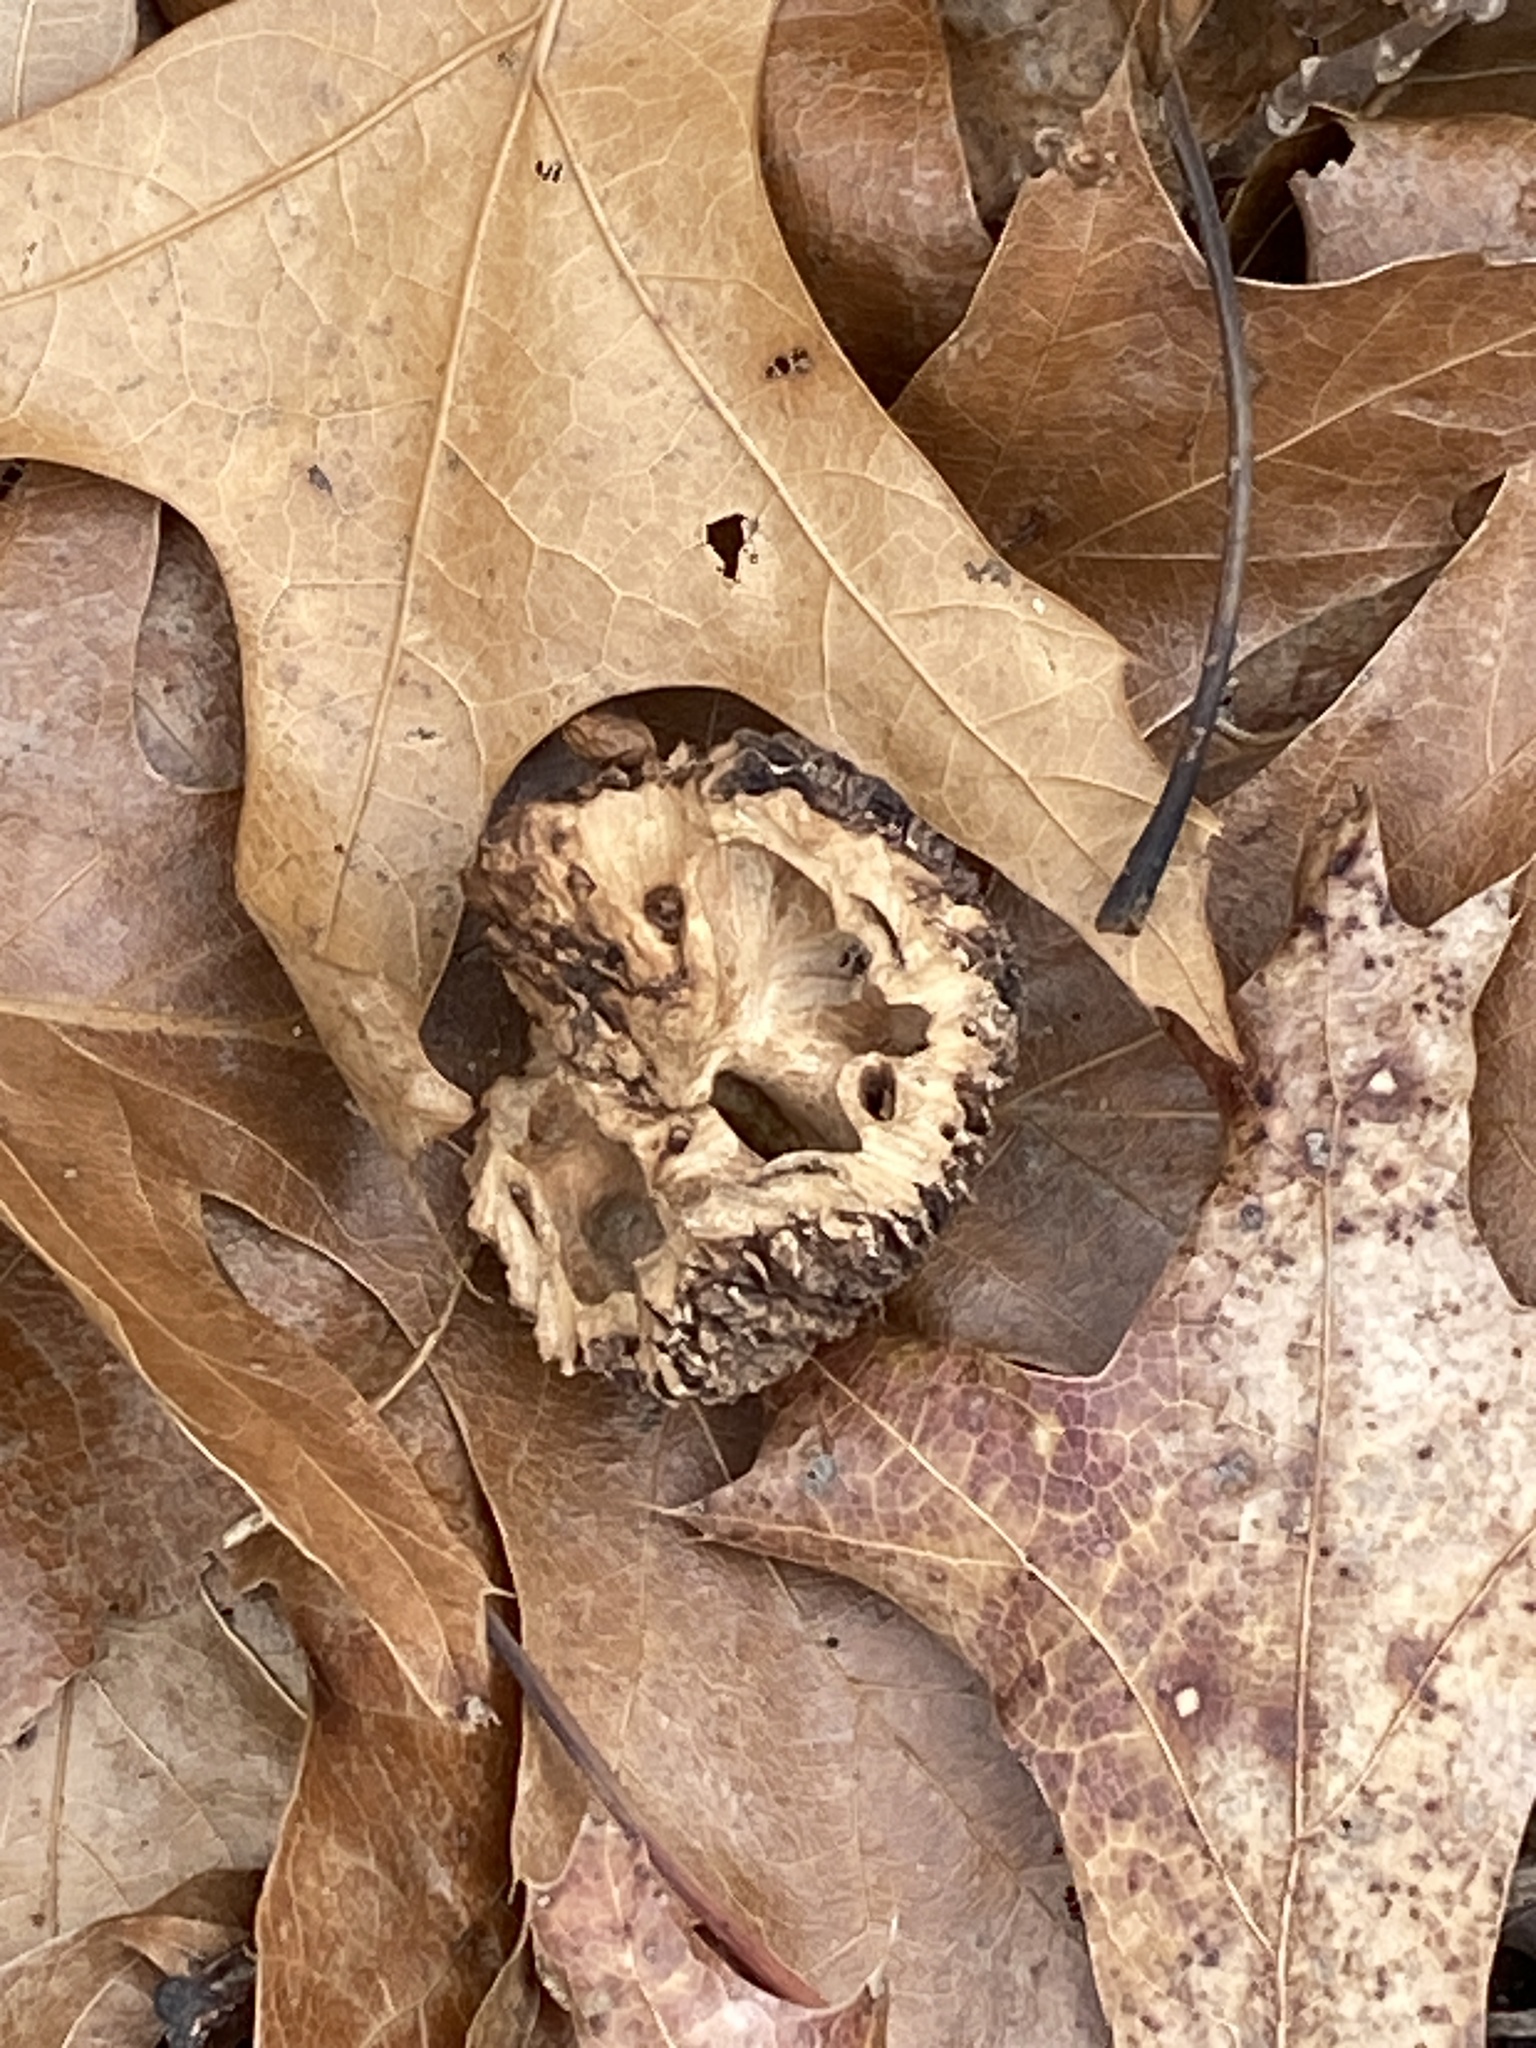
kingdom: Plantae
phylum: Tracheophyta
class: Magnoliopsida
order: Fagales
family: Juglandaceae
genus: Juglans
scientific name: Juglans nigra
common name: Black walnut
